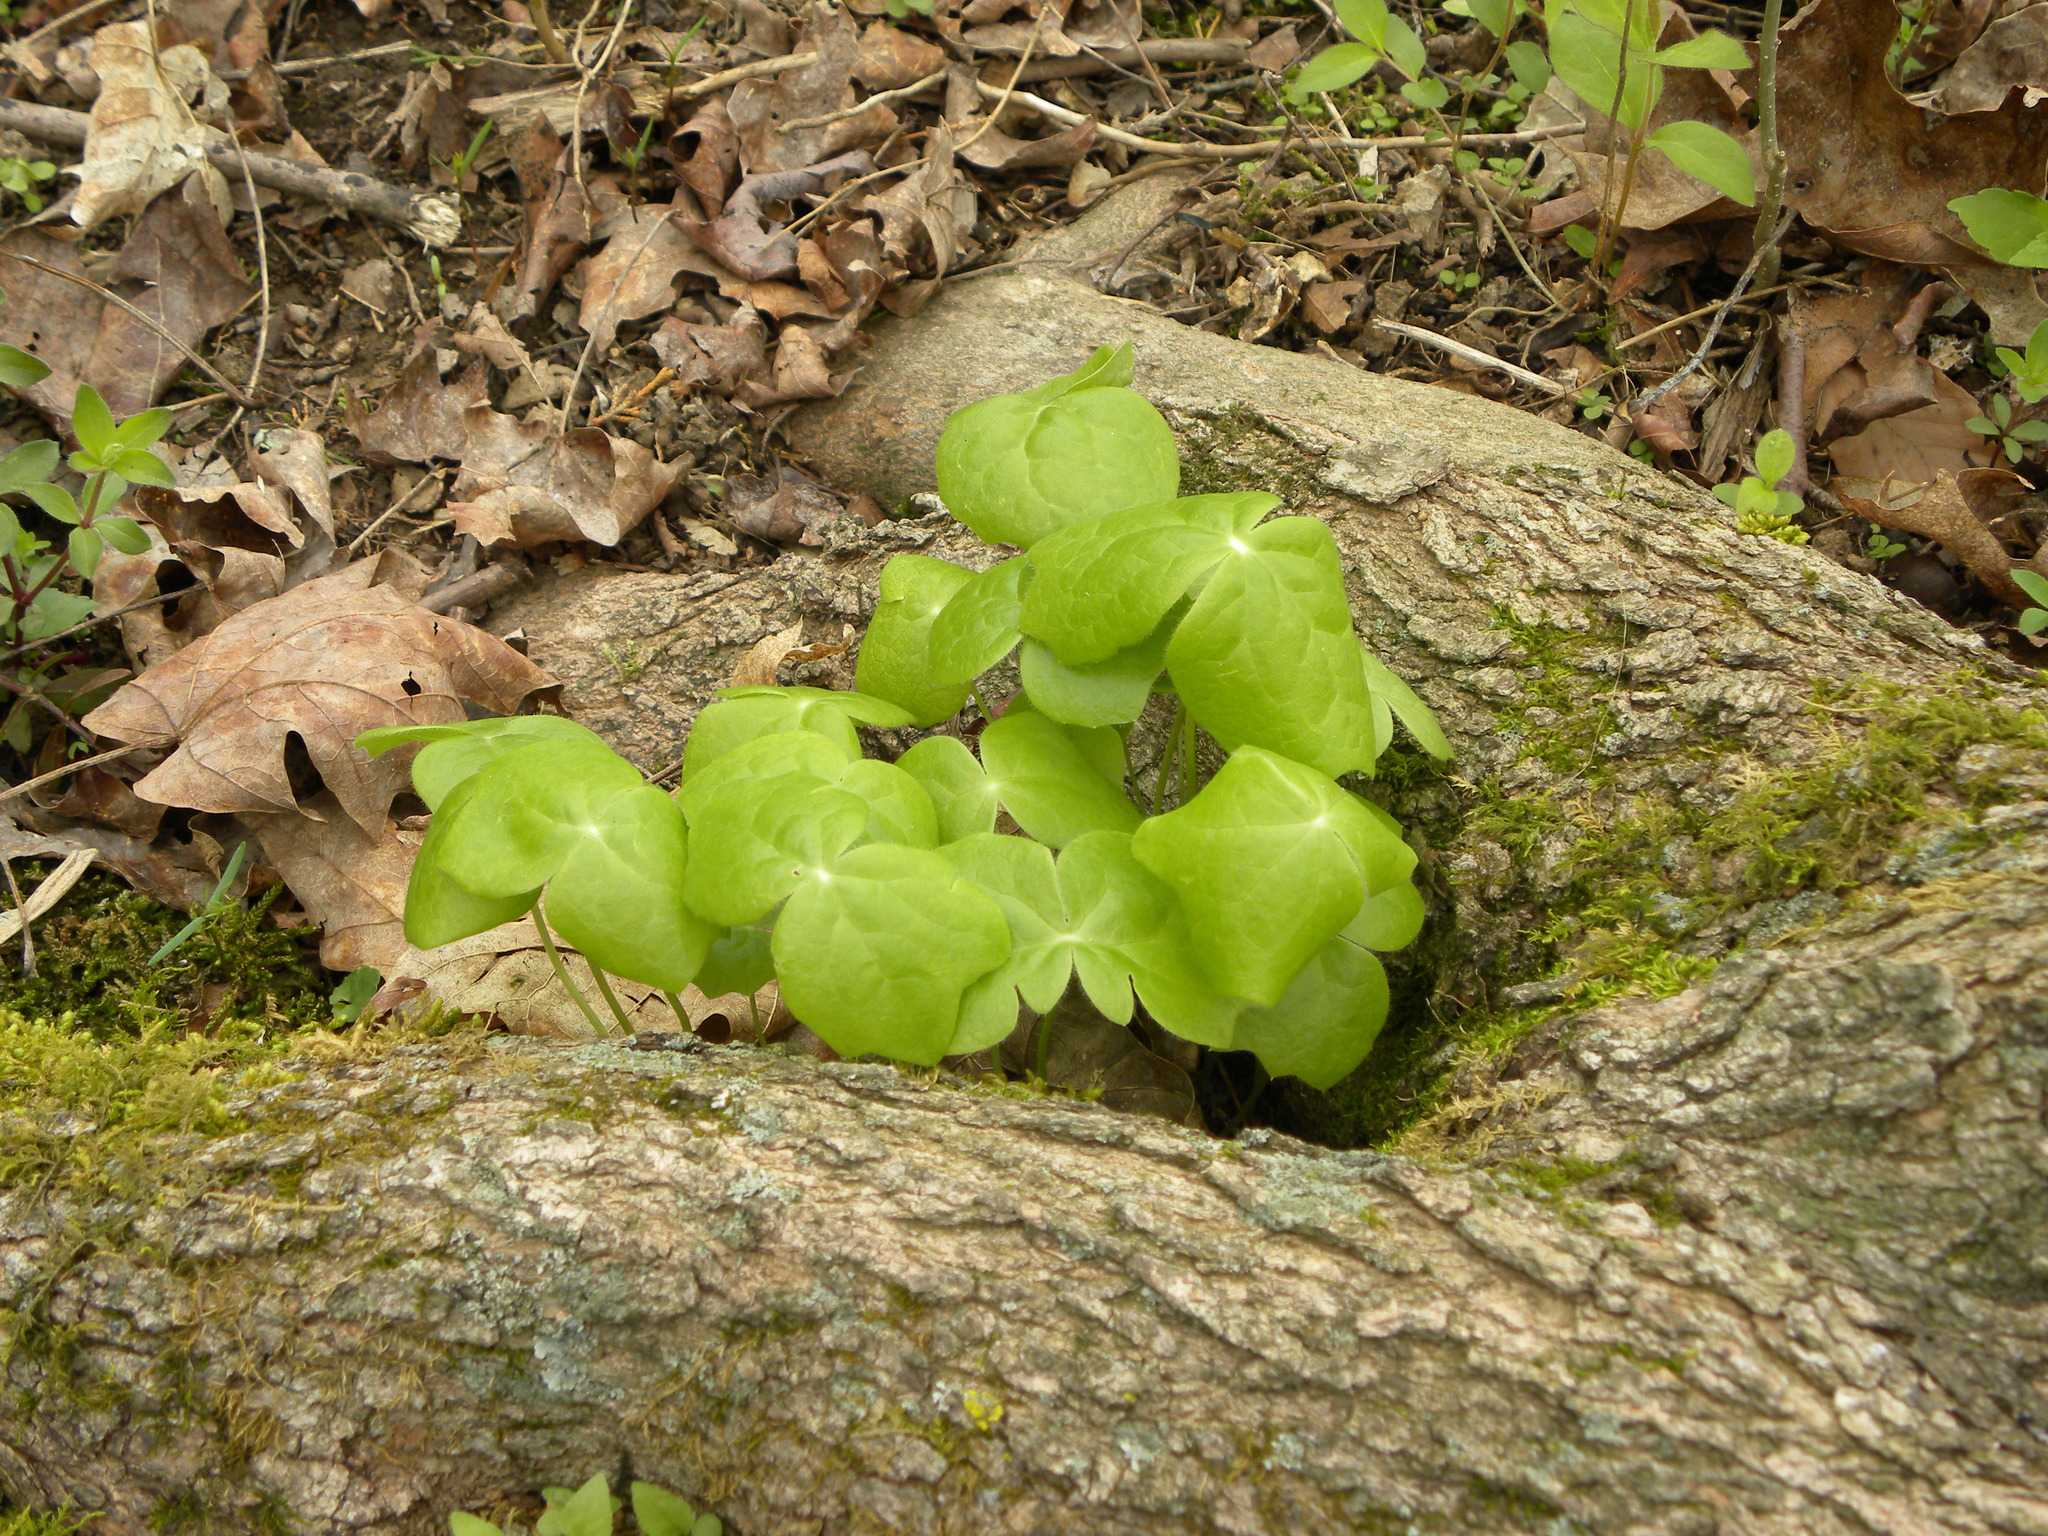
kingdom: Plantae
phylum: Tracheophyta
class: Magnoliopsida
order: Ranunculales
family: Berberidaceae
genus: Podophyllum
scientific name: Podophyllum peltatum
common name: Wild mandrake
